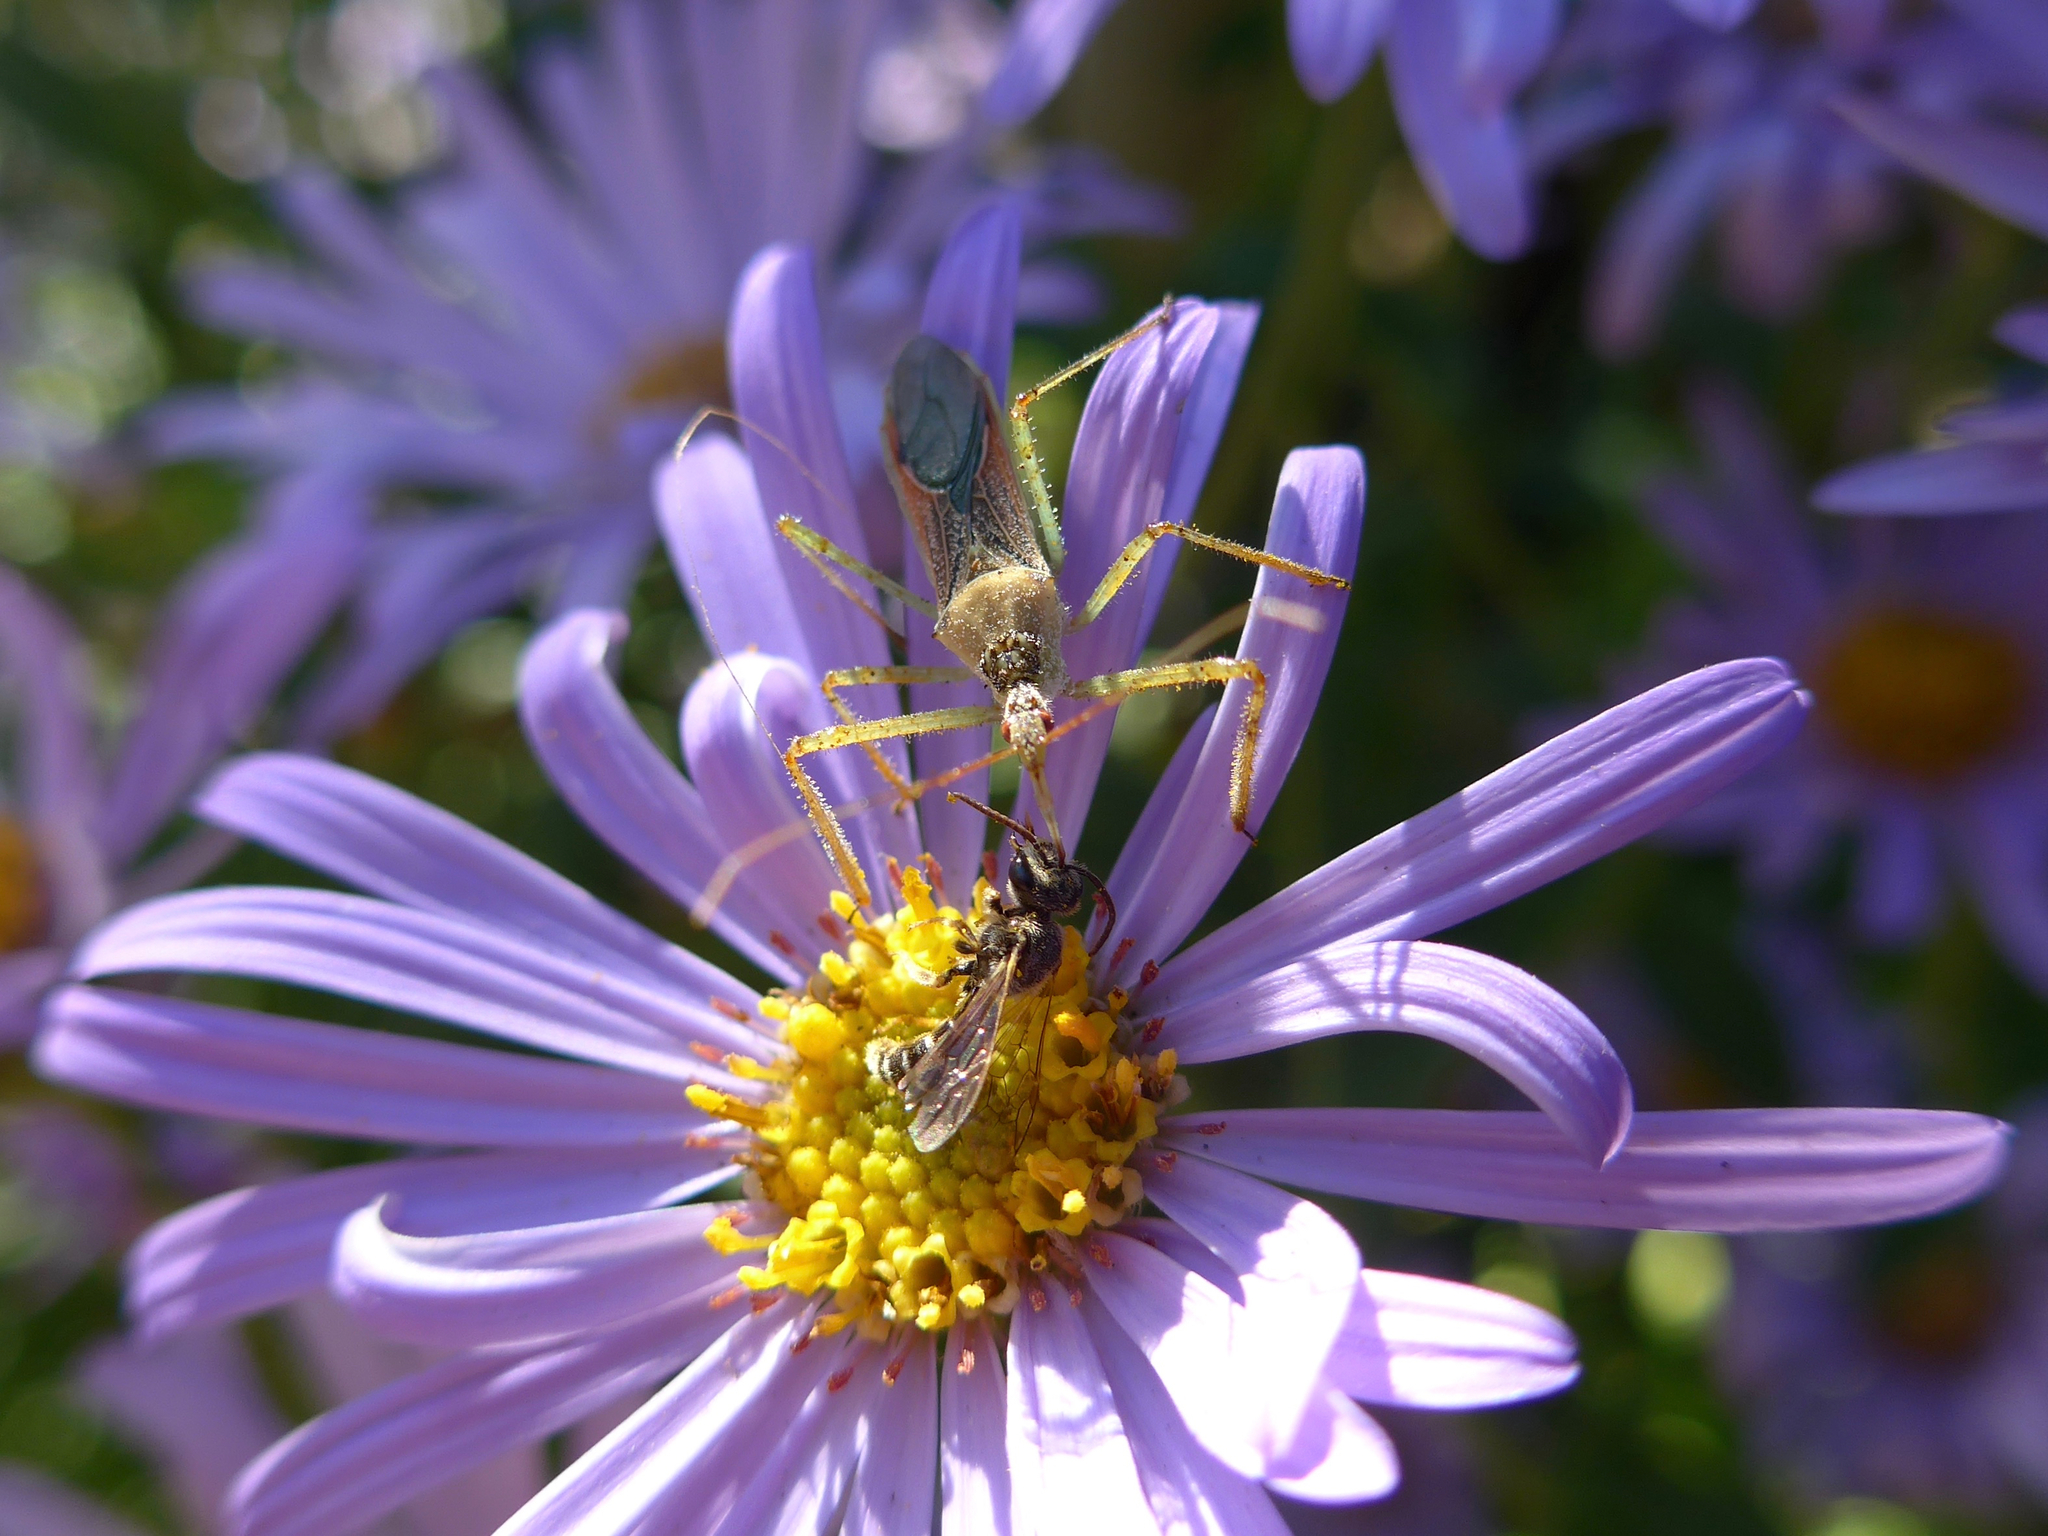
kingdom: Animalia
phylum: Arthropoda
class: Insecta
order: Hemiptera
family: Reduviidae
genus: Zelus
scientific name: Zelus renardii
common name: Assassin bug
